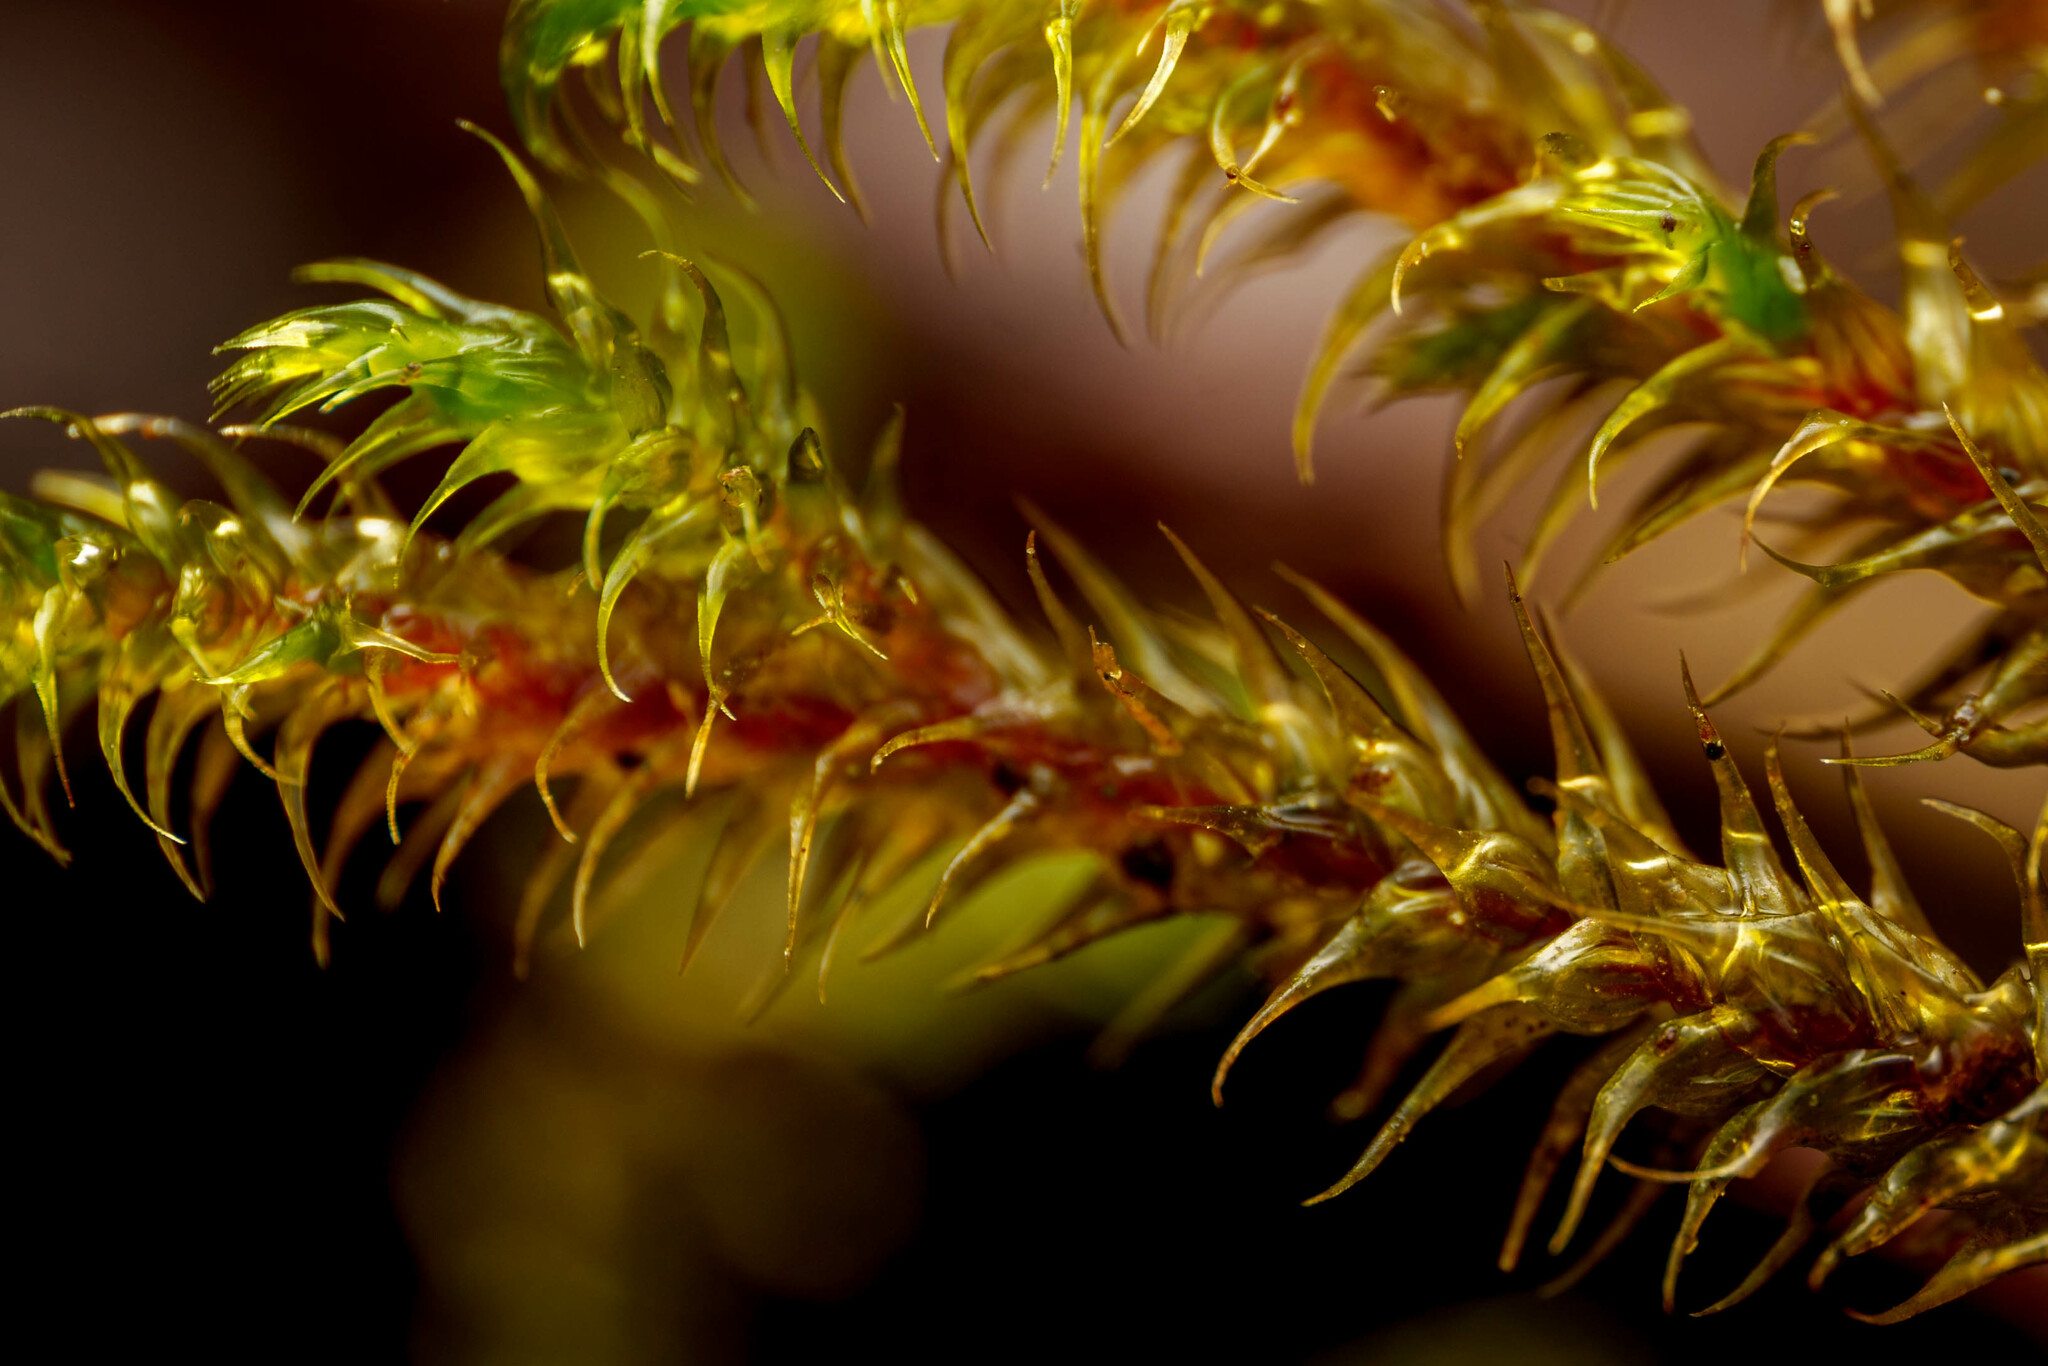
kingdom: Plantae
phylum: Bryophyta
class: Bryopsida
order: Hypnales
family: Hylocomiaceae
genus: Rhytidiadelphus
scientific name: Rhytidiadelphus loreus
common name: Lanky moss
